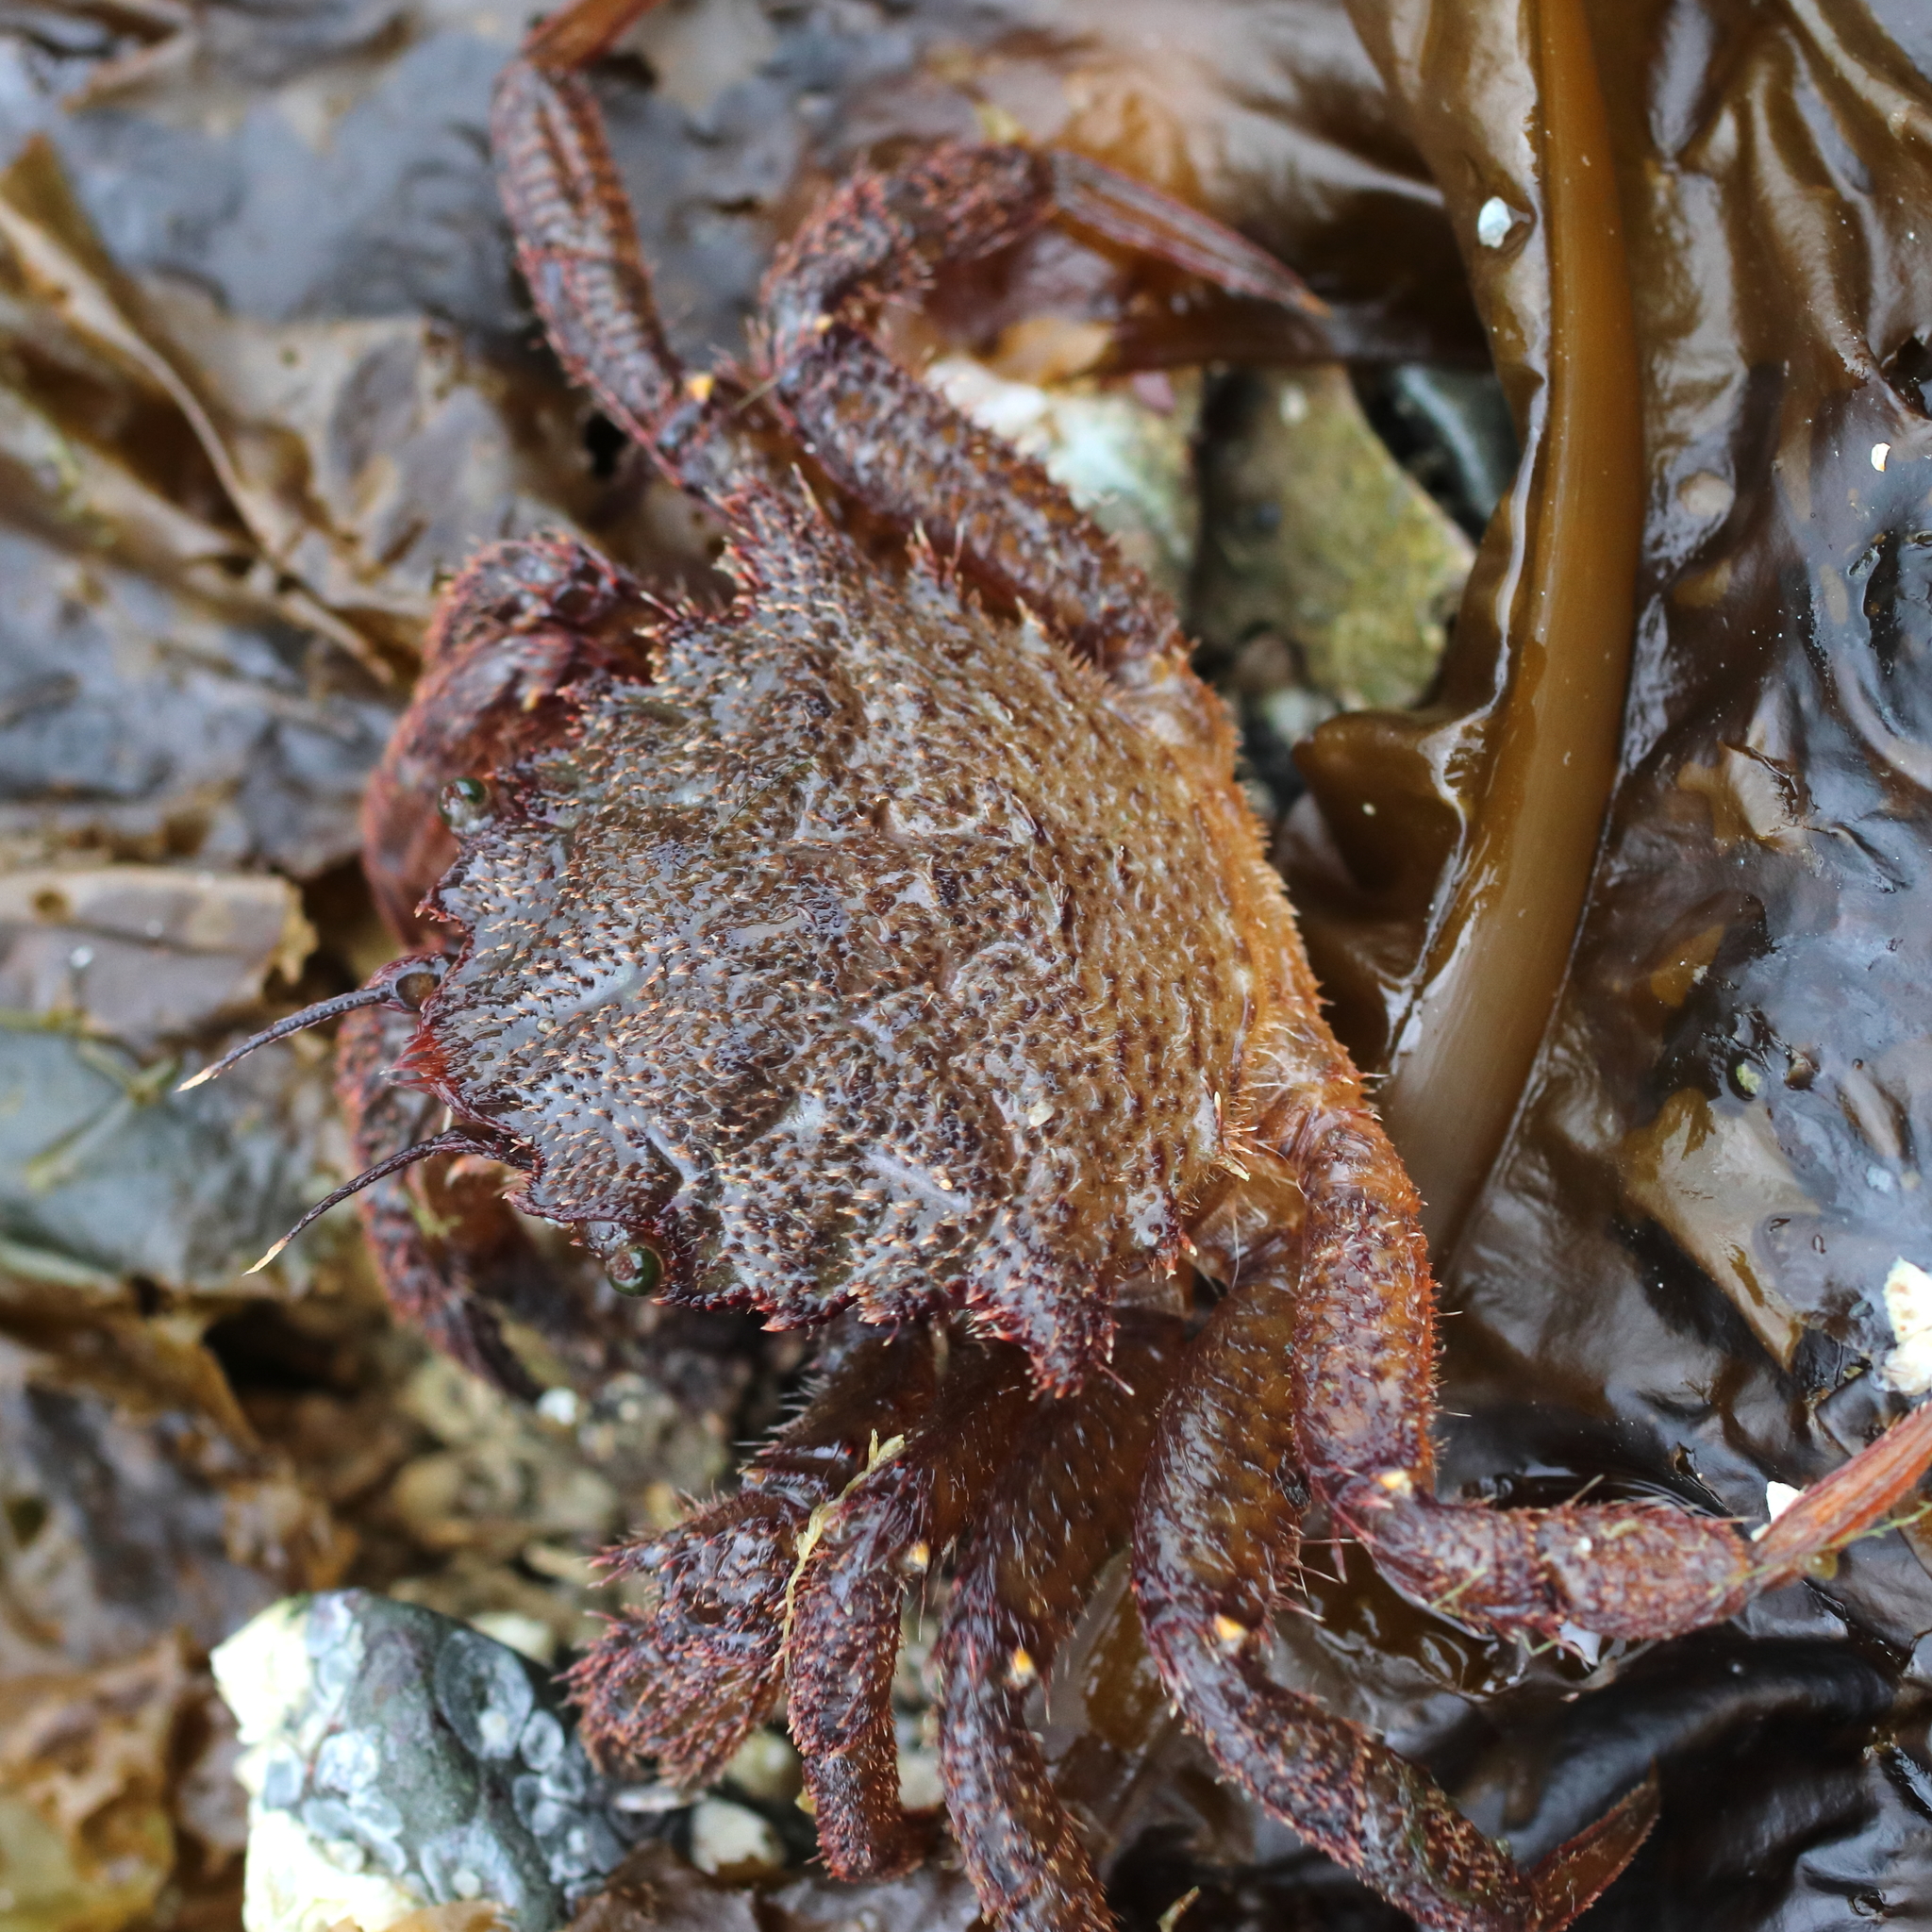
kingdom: Animalia
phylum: Arthropoda
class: Malacostraca
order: Decapoda
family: Cheiragonidae
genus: Telmessus
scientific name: Telmessus cheiragonus
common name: Helmet crab
